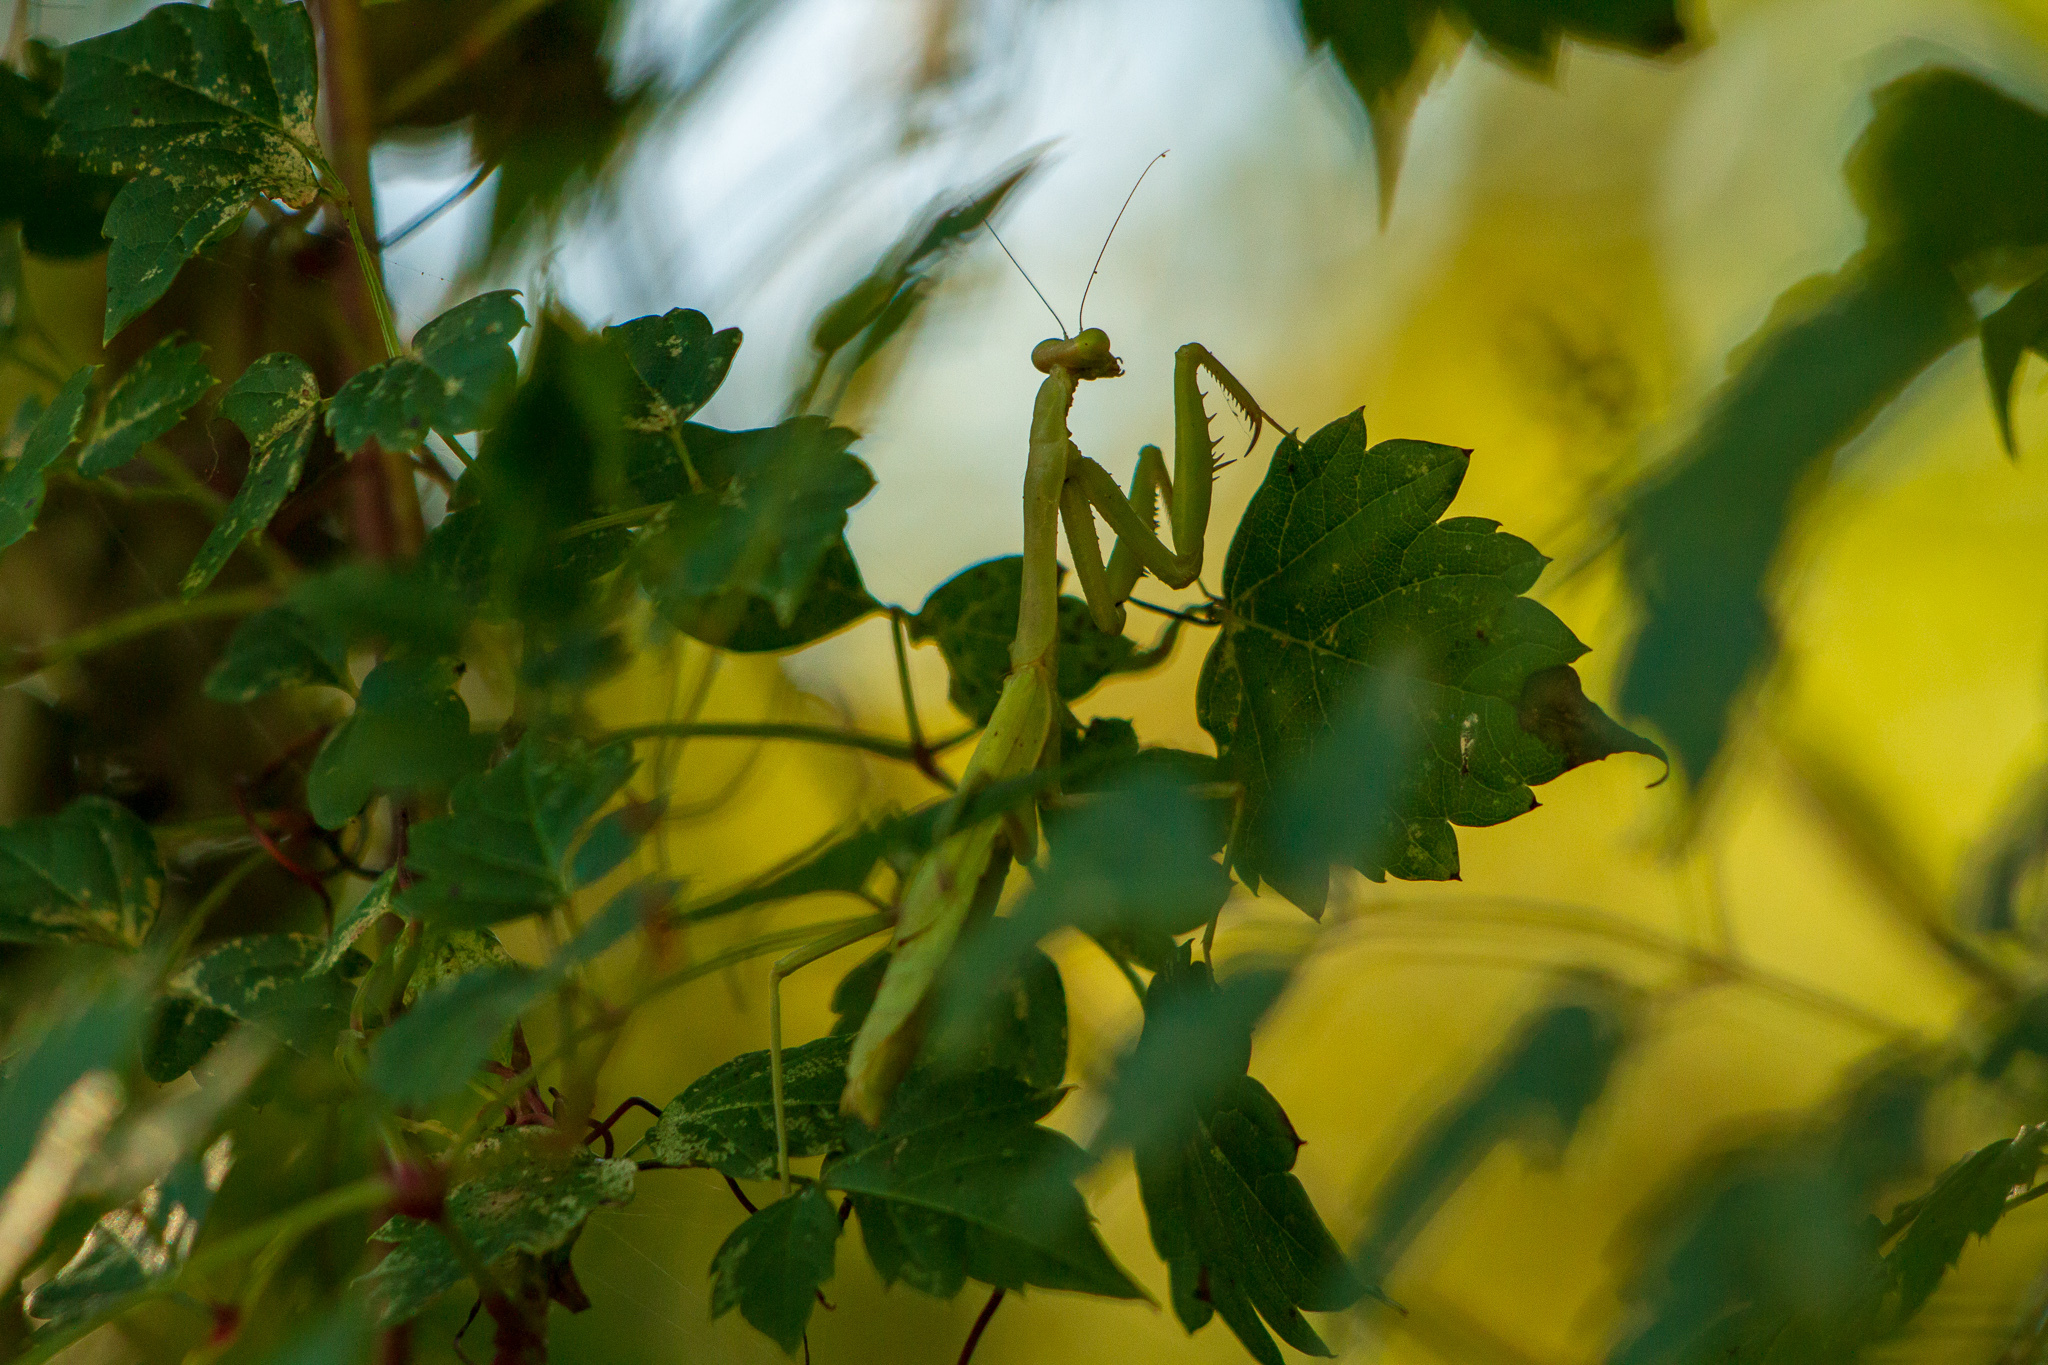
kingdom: Animalia
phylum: Arthropoda
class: Insecta
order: Mantodea
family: Mantidae
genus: Stagmomantis
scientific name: Stagmomantis carolina
